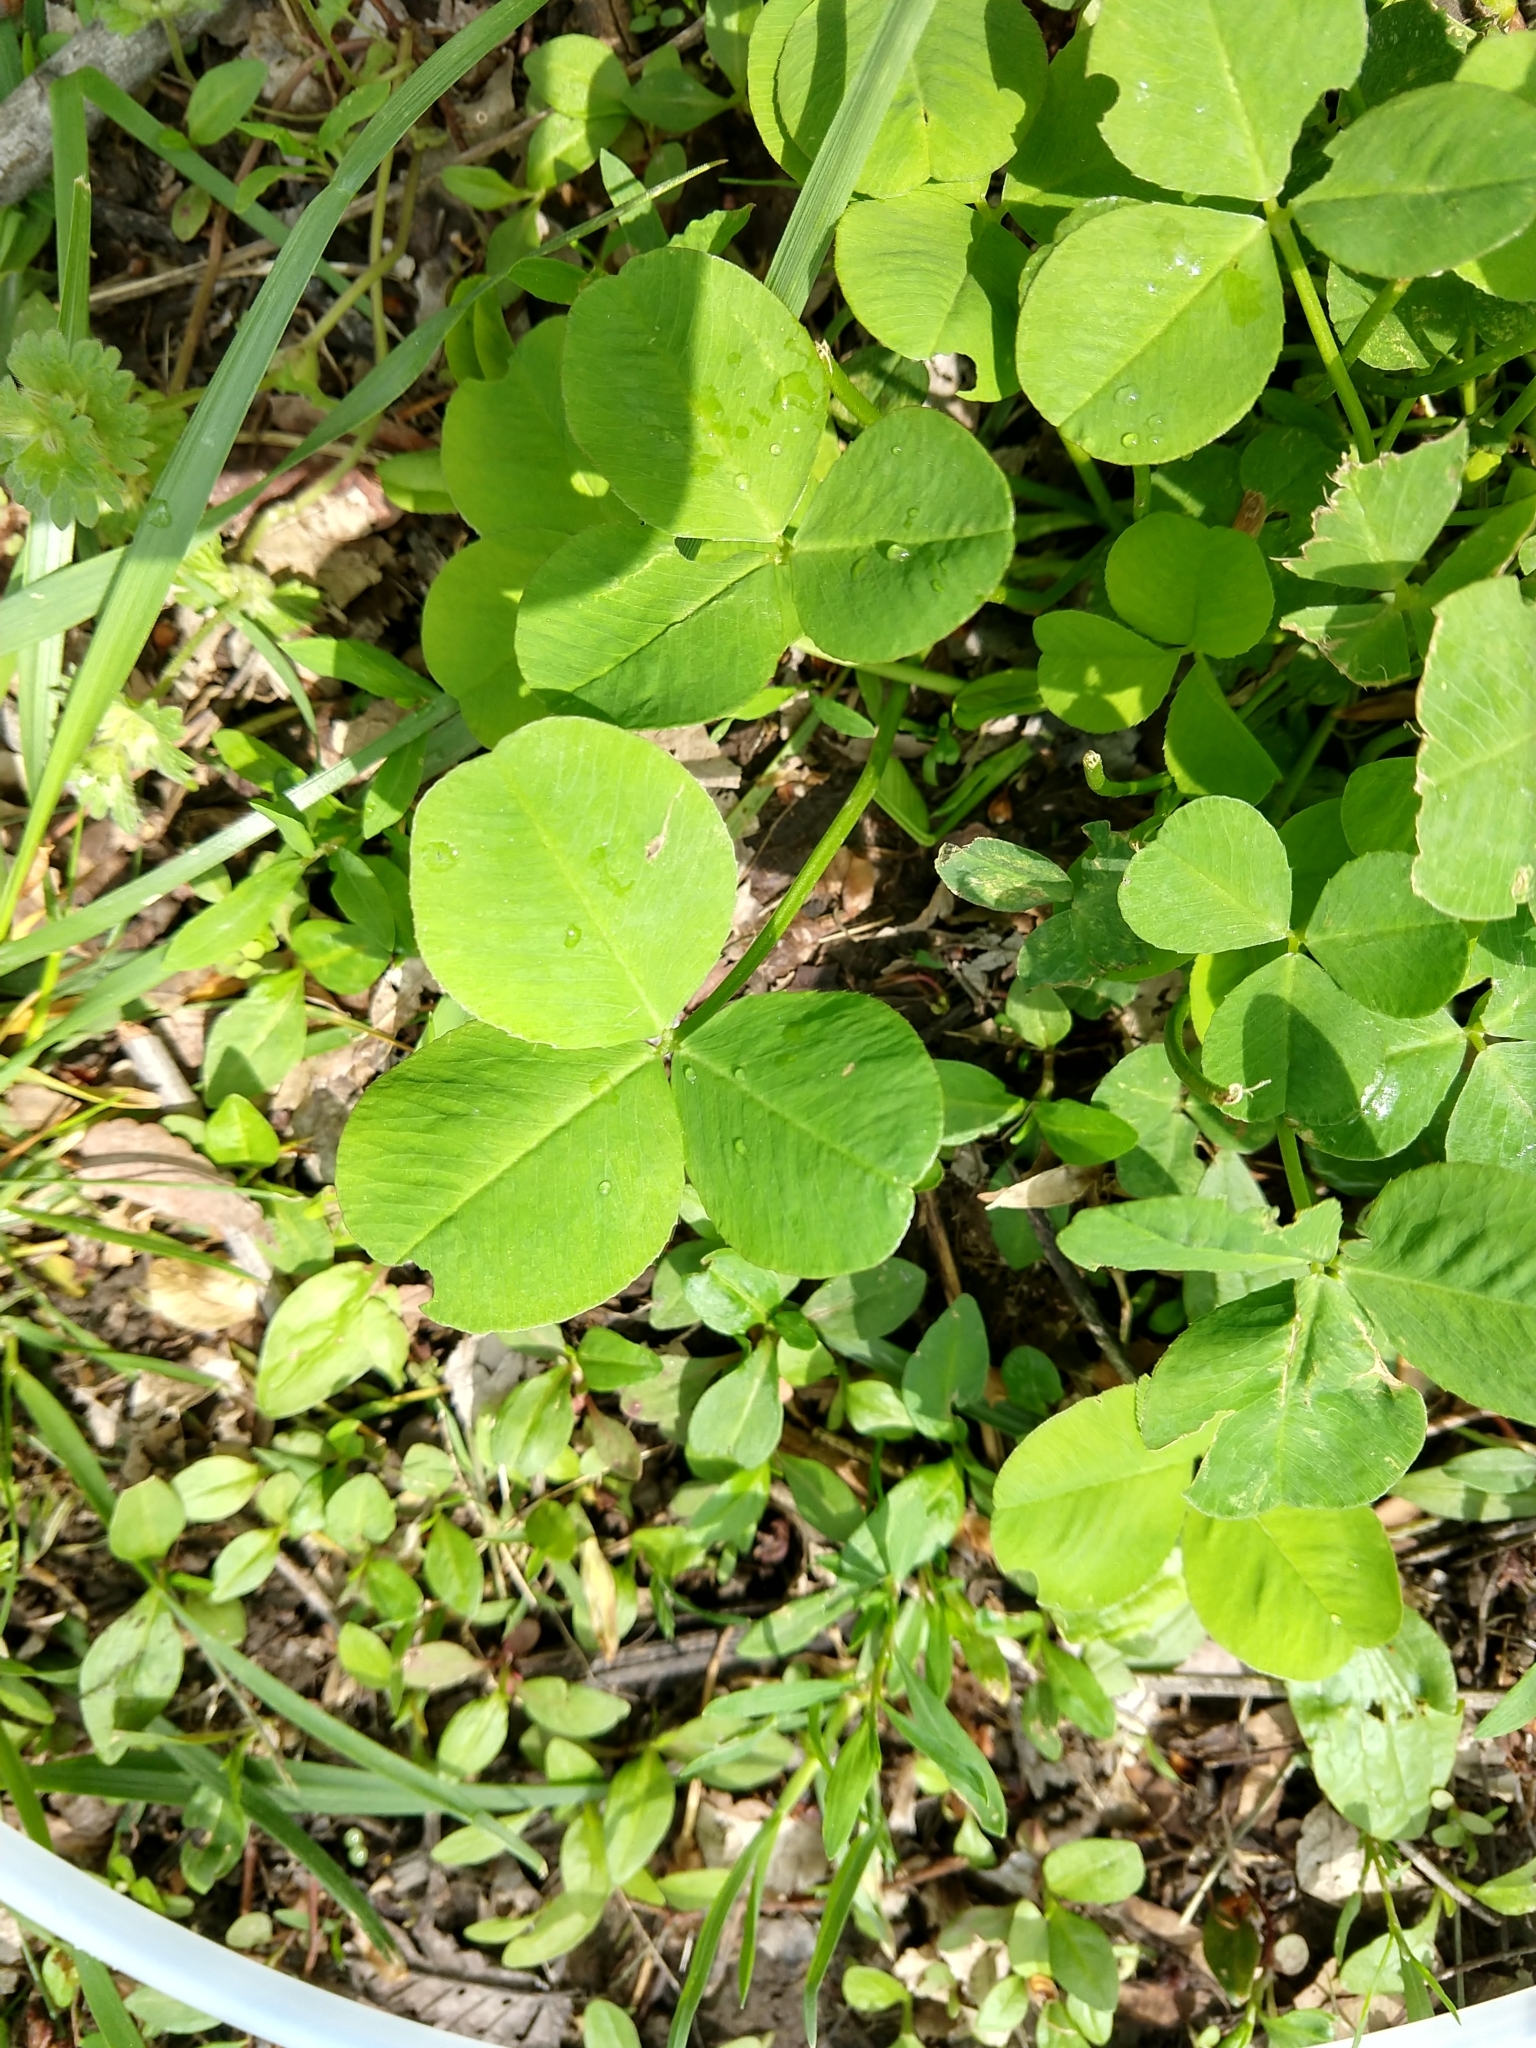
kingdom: Plantae
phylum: Tracheophyta
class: Magnoliopsida
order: Fabales
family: Fabaceae
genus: Trifolium
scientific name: Trifolium repens
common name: White clover
